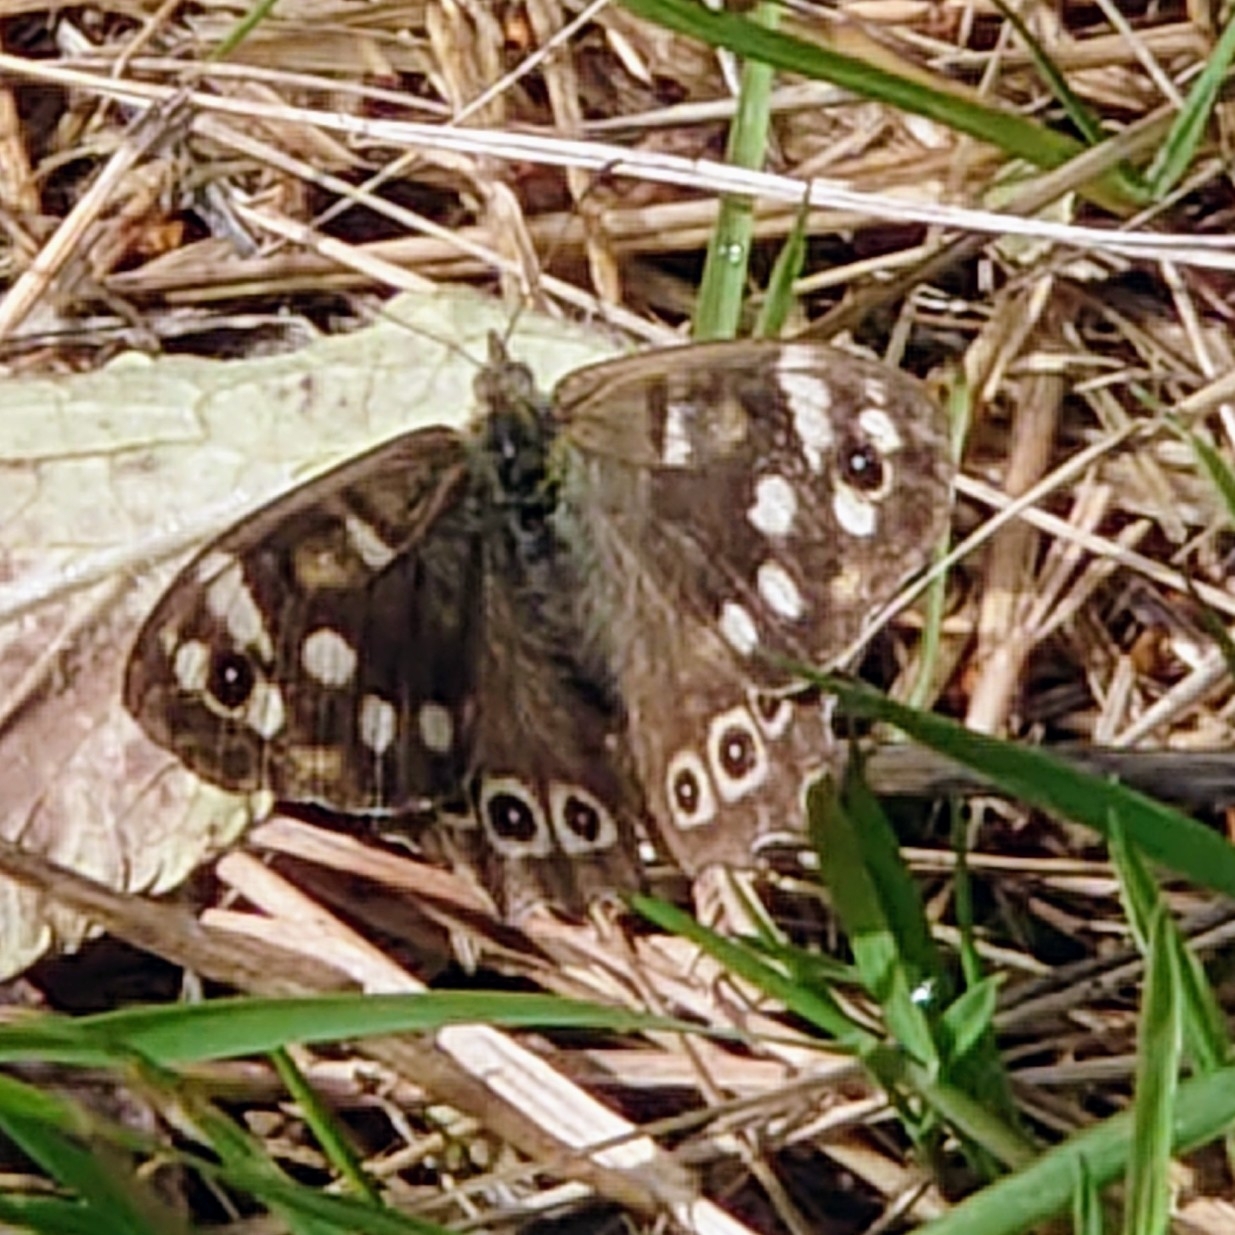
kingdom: Animalia
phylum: Arthropoda
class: Insecta
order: Lepidoptera
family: Nymphalidae
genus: Pararge
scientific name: Pararge aegeria
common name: Speckled wood
